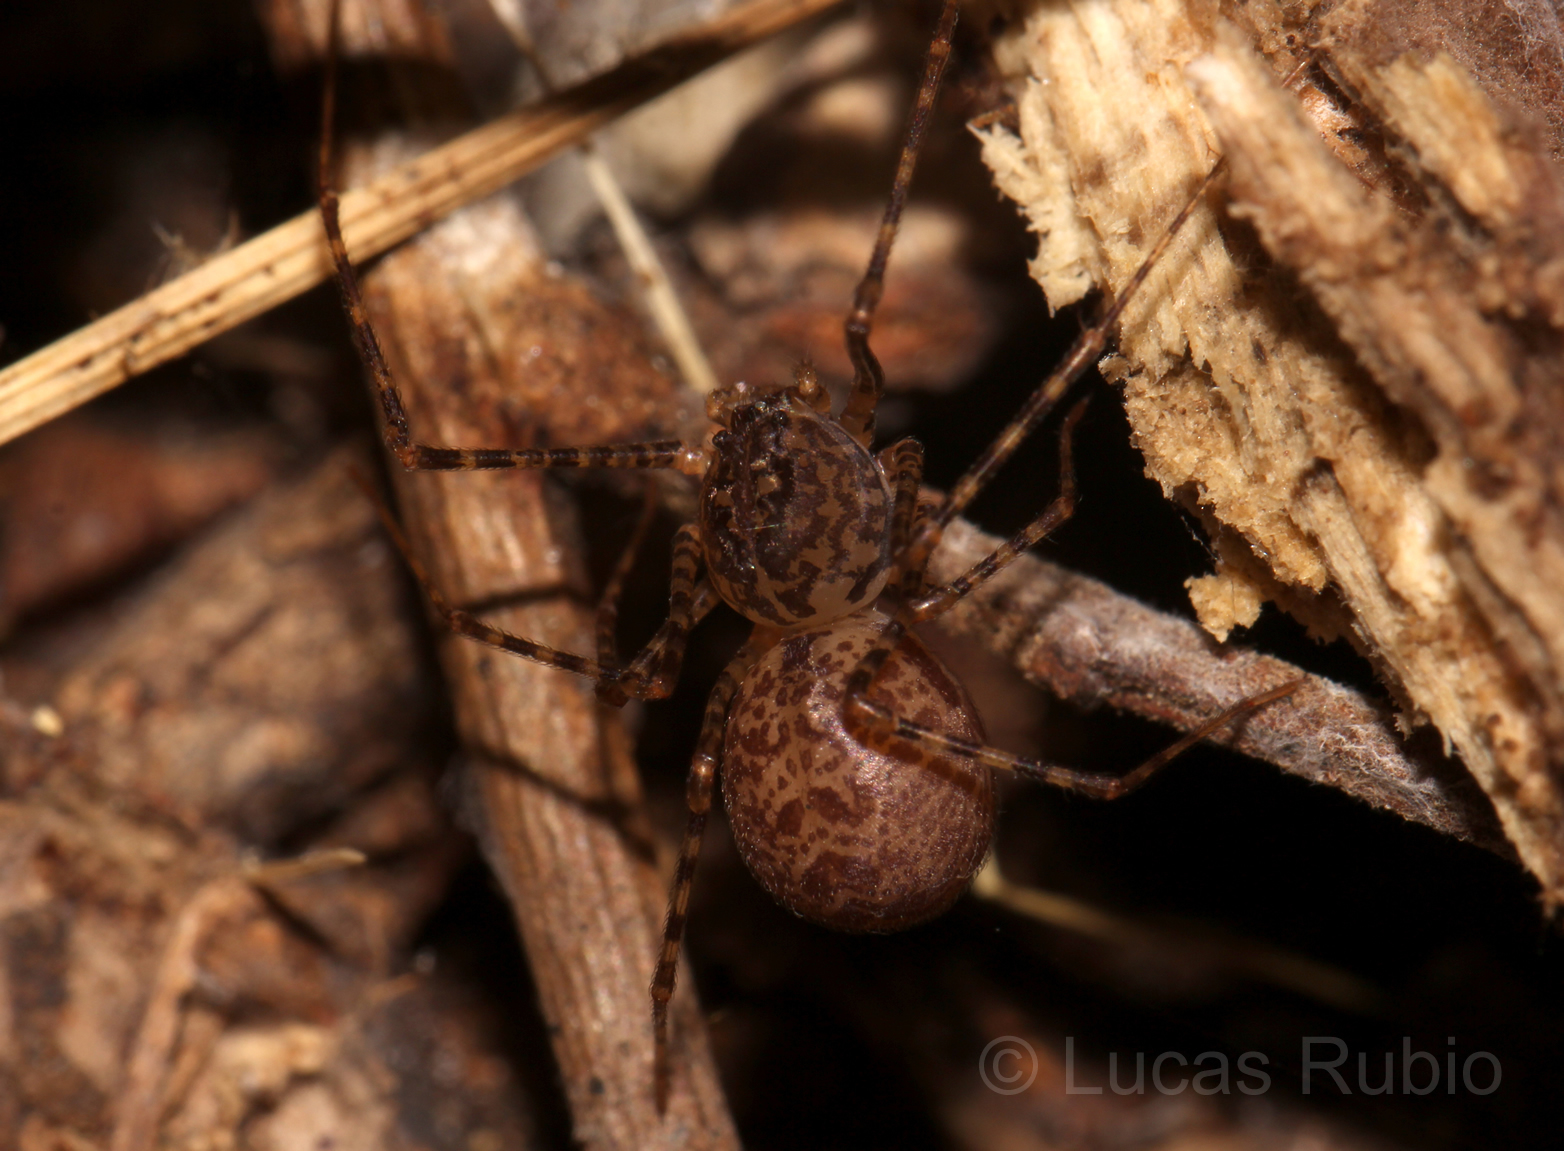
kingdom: Animalia
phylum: Arthropoda
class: Arachnida
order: Araneae
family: Scytodidae
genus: Scytodes
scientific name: Scytodes globula
